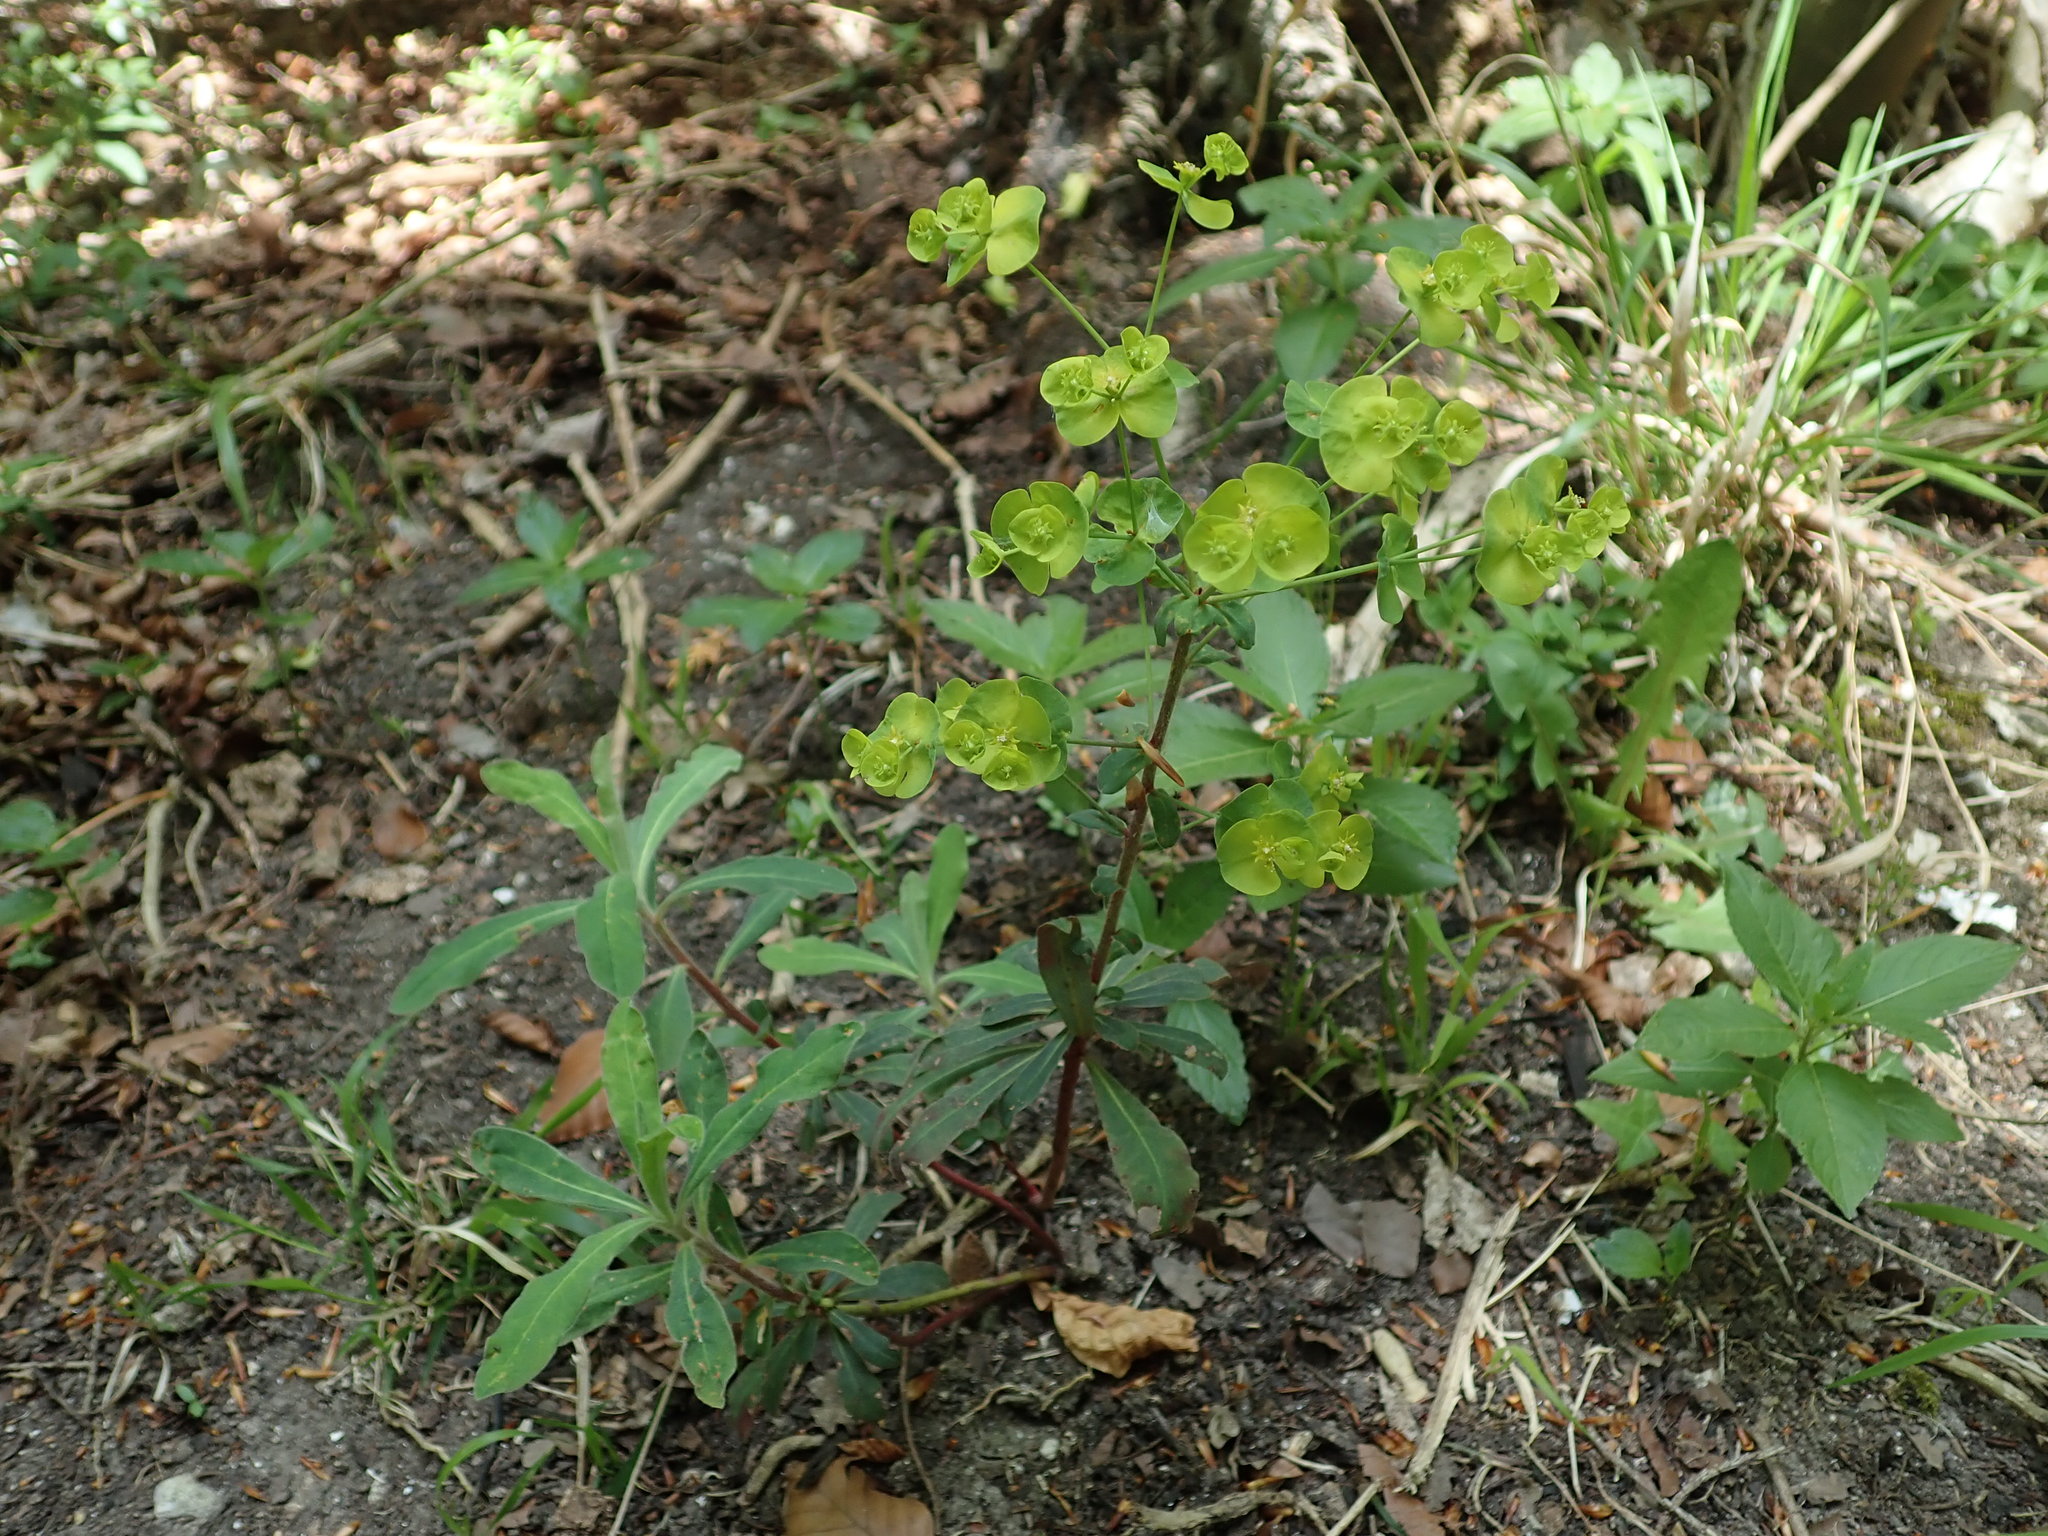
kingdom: Plantae
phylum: Tracheophyta
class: Magnoliopsida
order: Malpighiales
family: Euphorbiaceae
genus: Euphorbia
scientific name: Euphorbia amygdaloides
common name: Wood spurge
